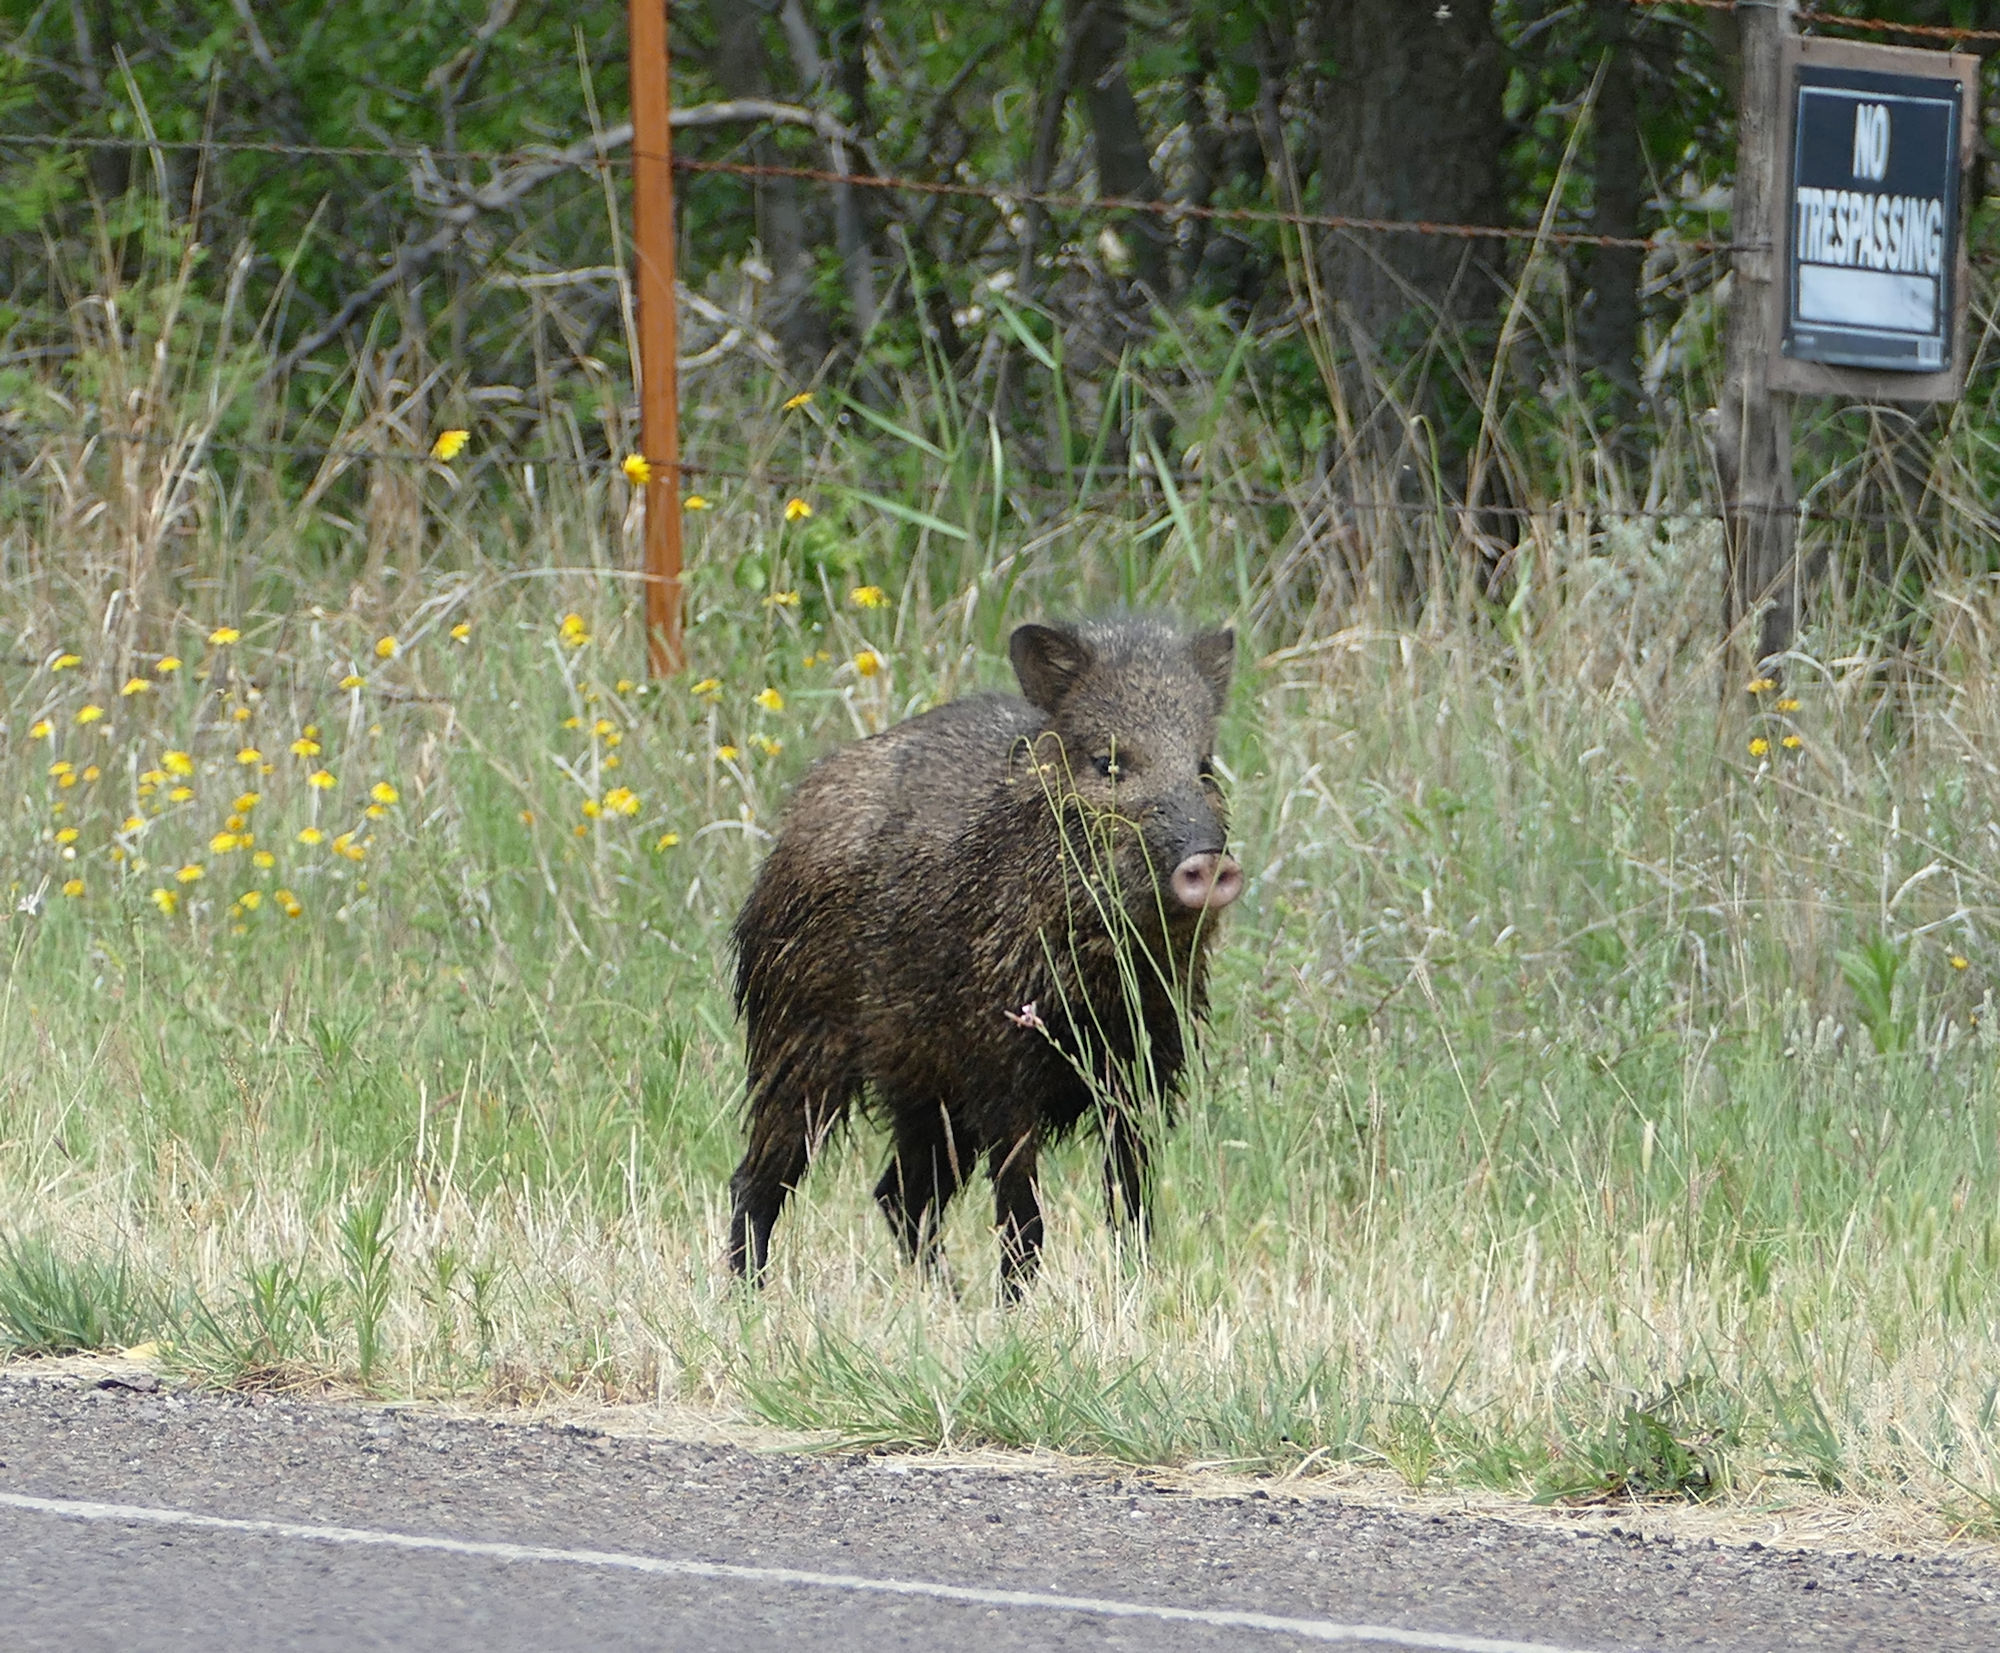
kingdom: Animalia
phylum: Chordata
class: Mammalia
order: Artiodactyla
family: Tayassuidae
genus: Pecari
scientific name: Pecari tajacu
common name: Collared peccary
